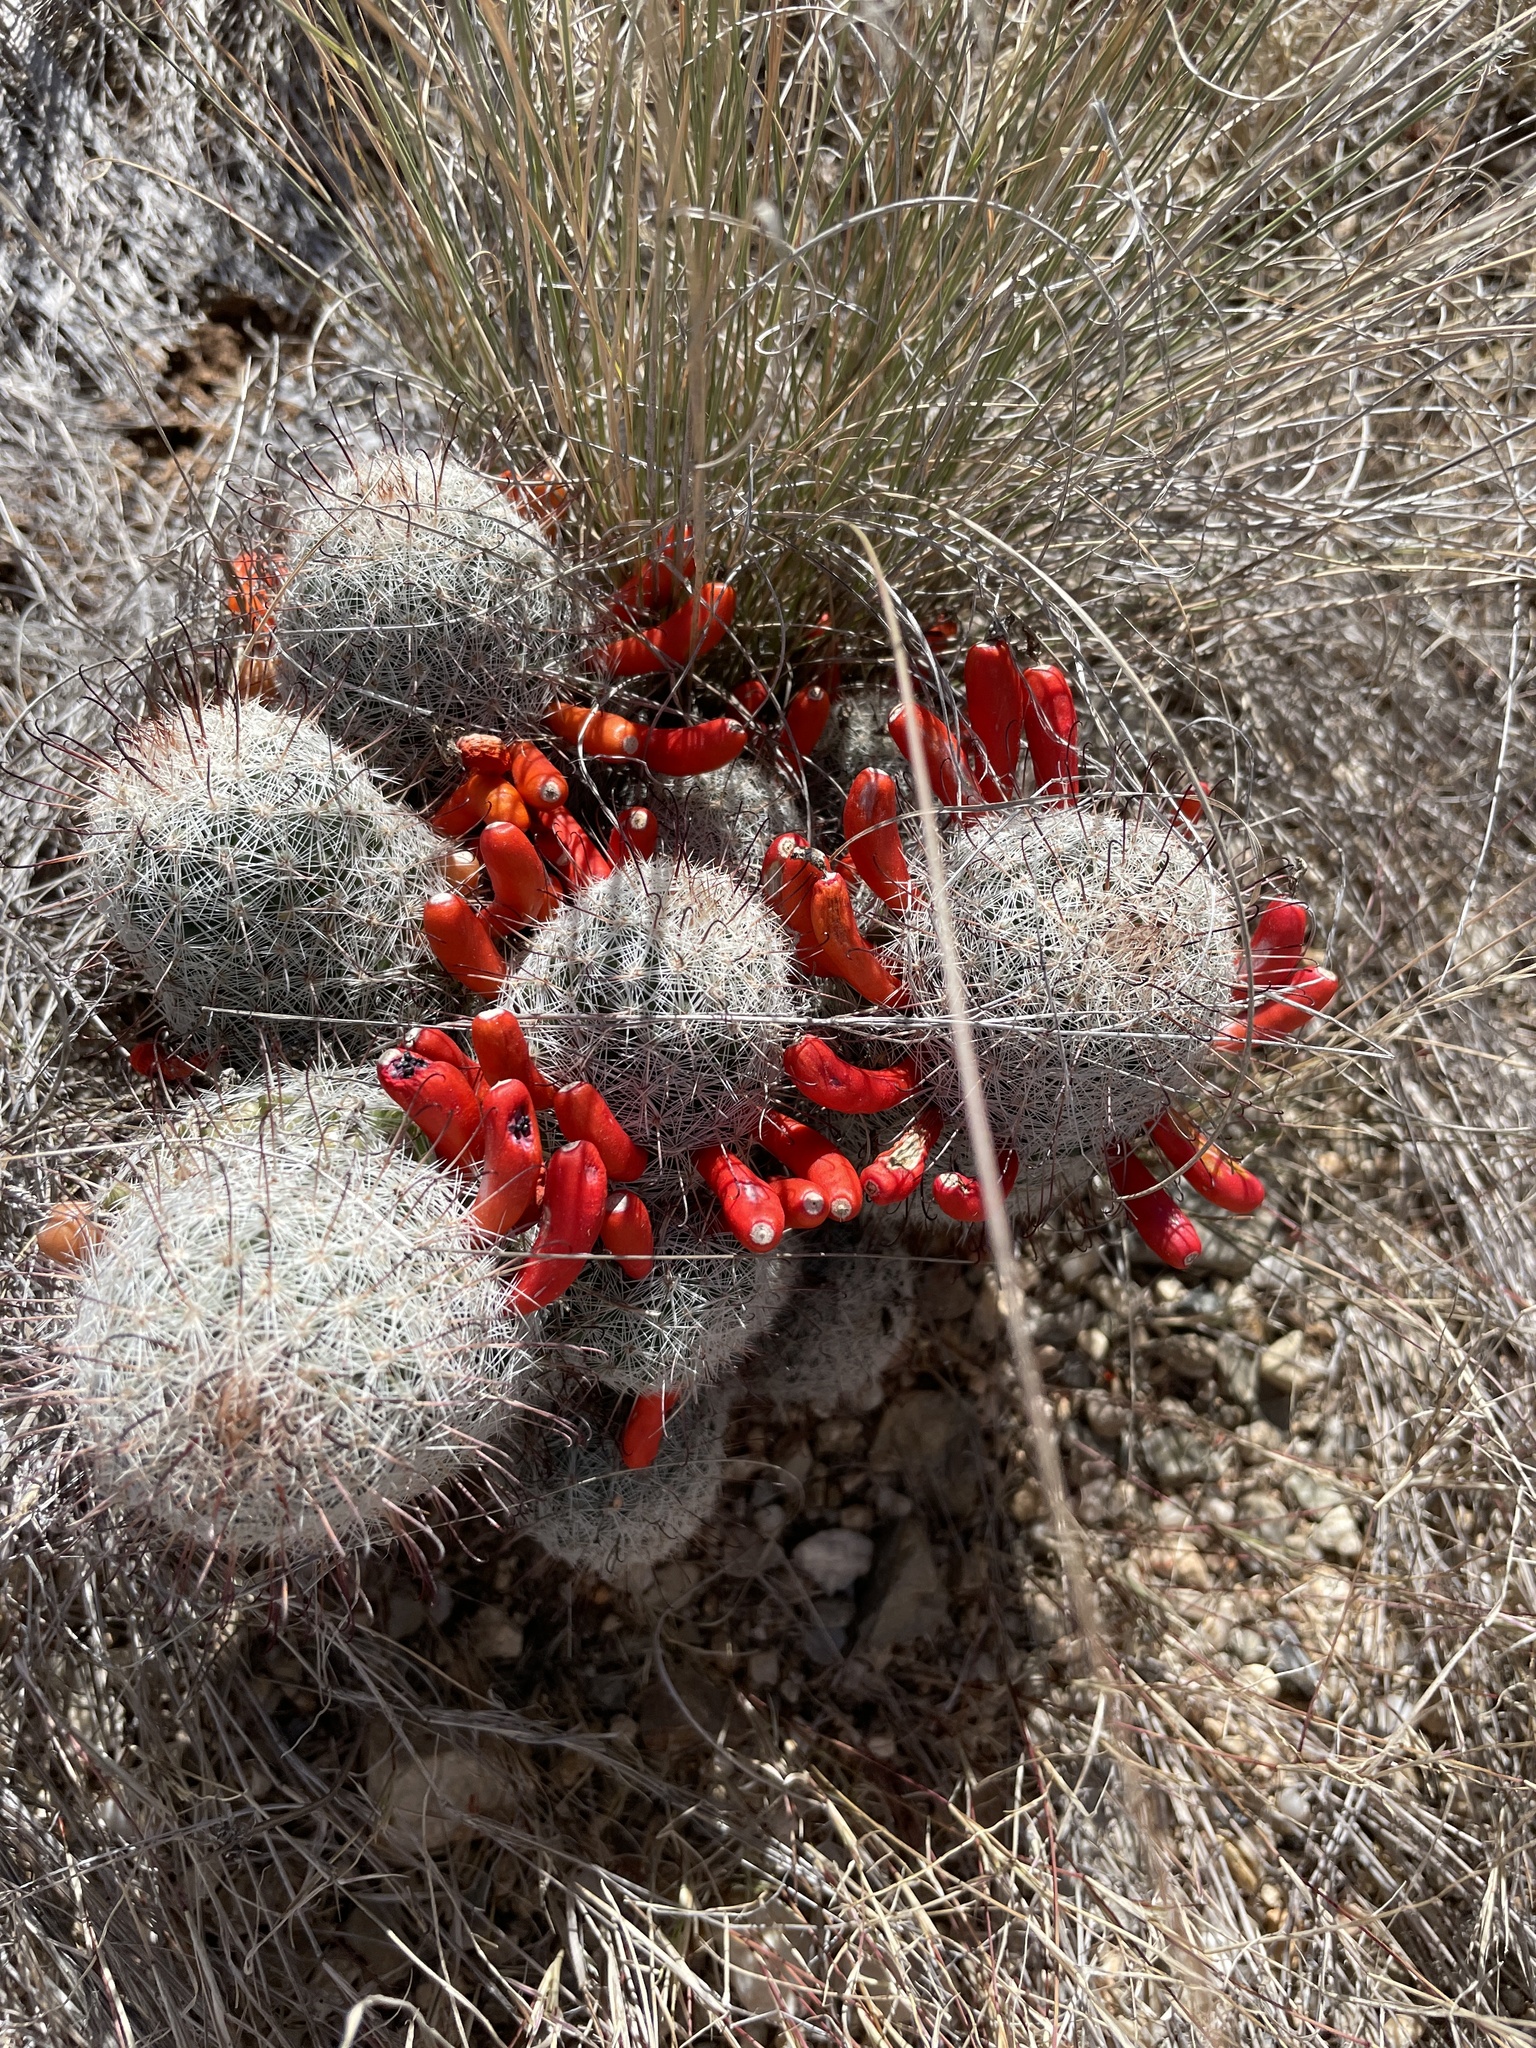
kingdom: Plantae
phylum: Tracheophyta
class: Magnoliopsida
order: Caryophyllales
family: Cactaceae
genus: Cochemiea
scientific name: Cochemiea grahamii
